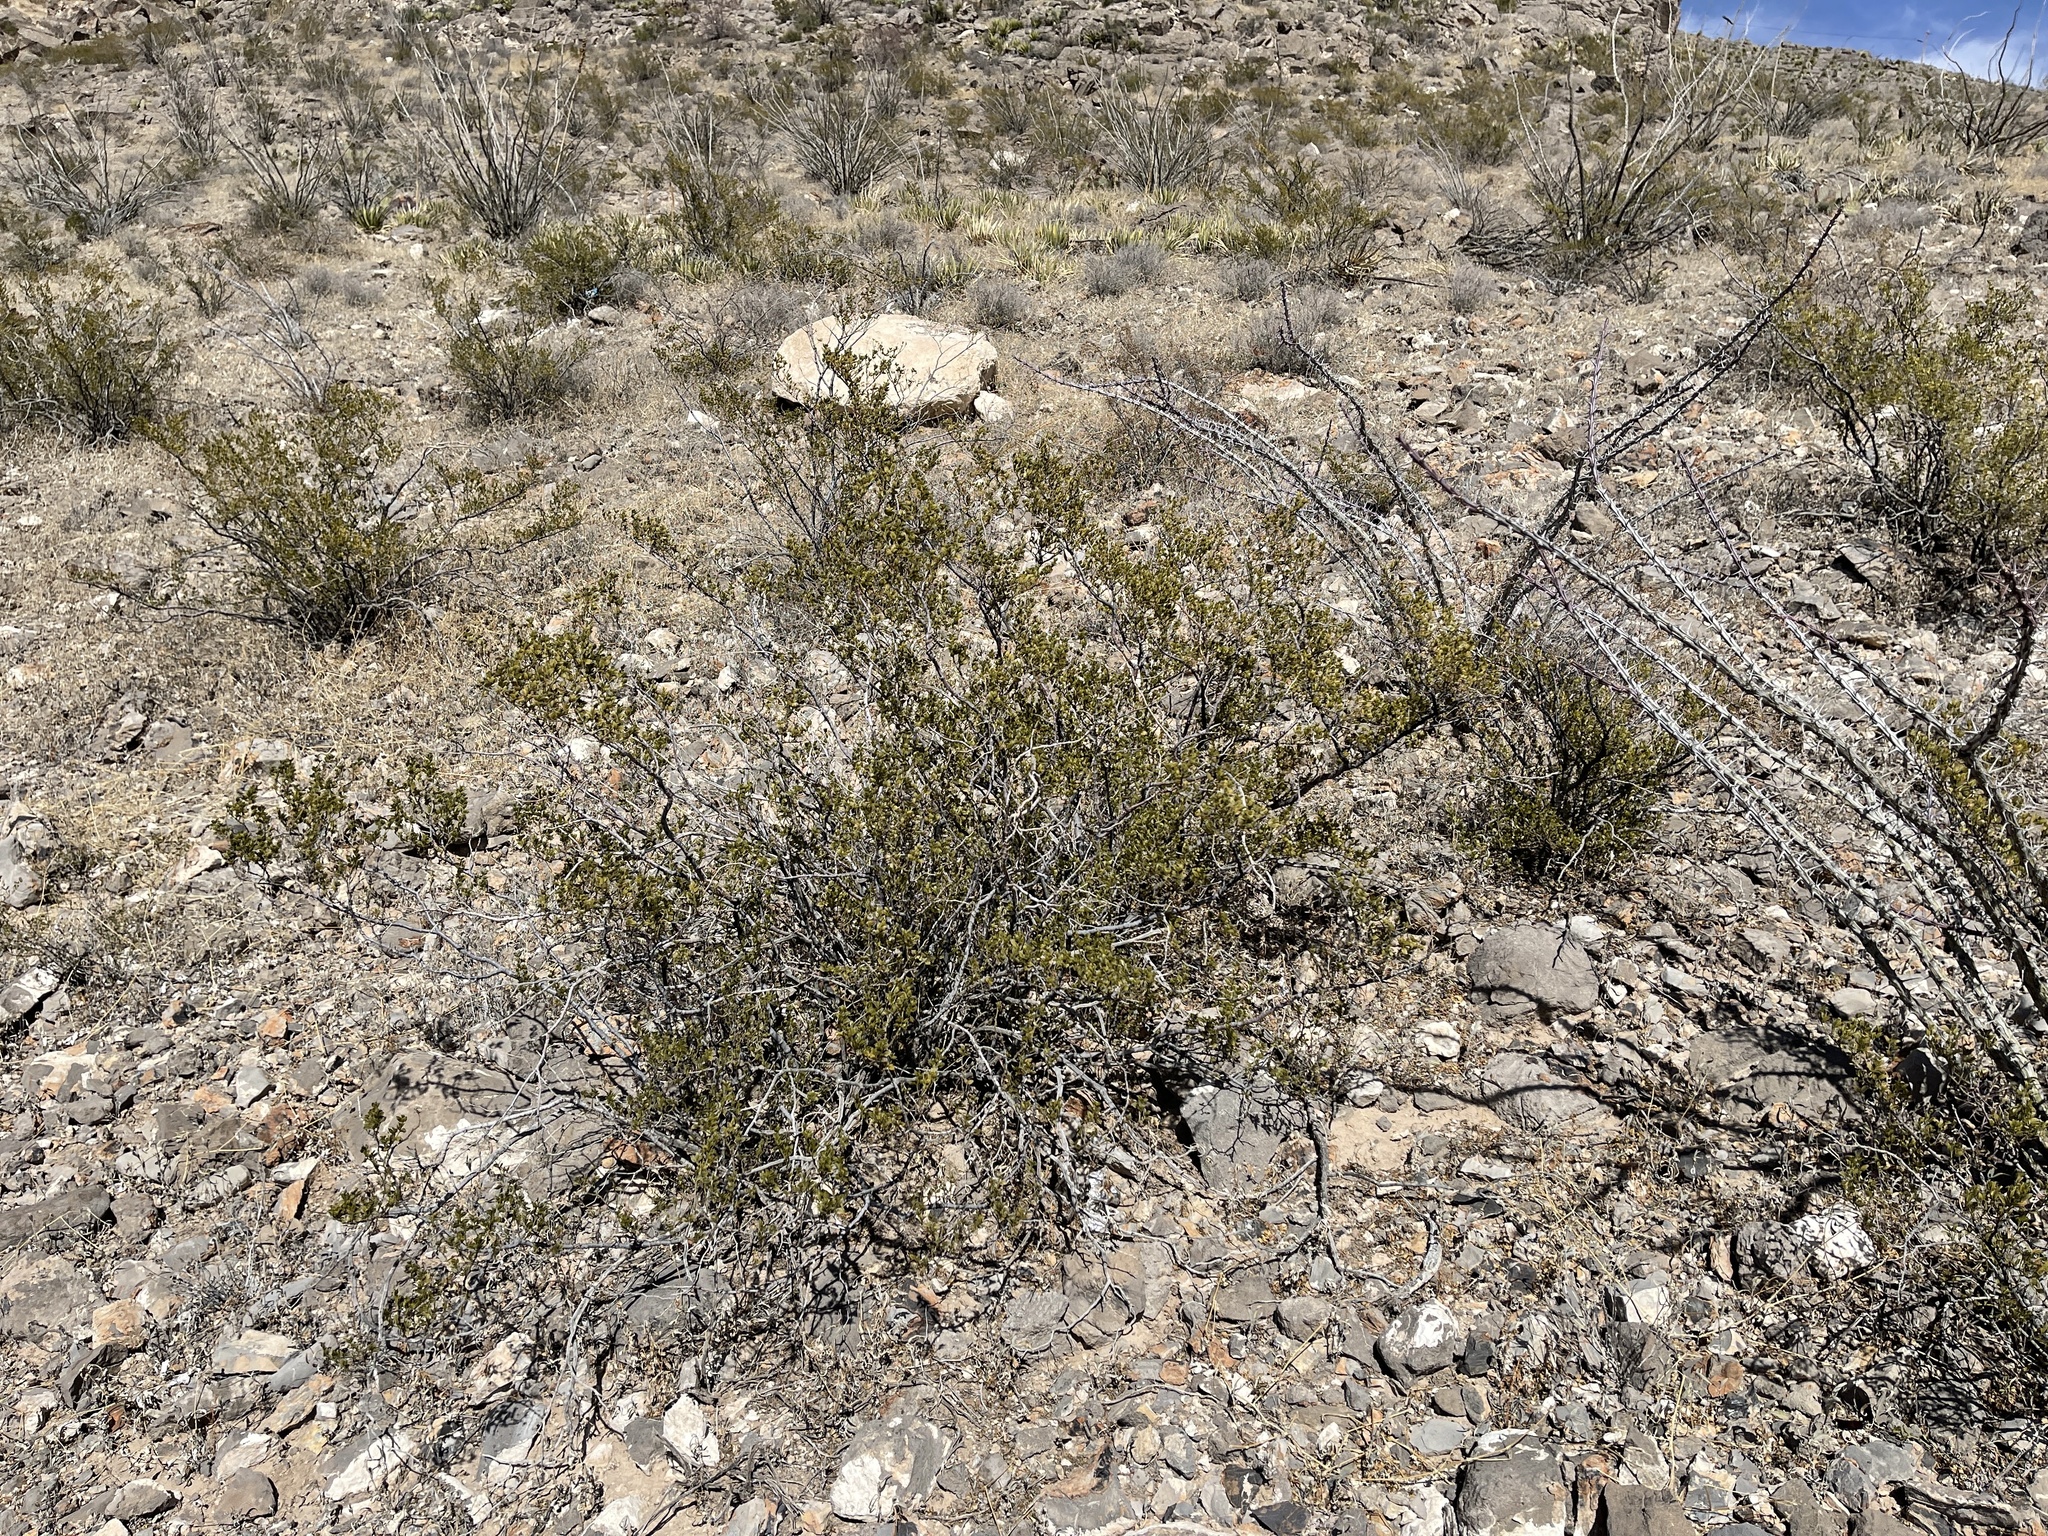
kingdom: Plantae
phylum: Tracheophyta
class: Magnoliopsida
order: Zygophyllales
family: Zygophyllaceae
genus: Larrea
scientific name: Larrea tridentata
